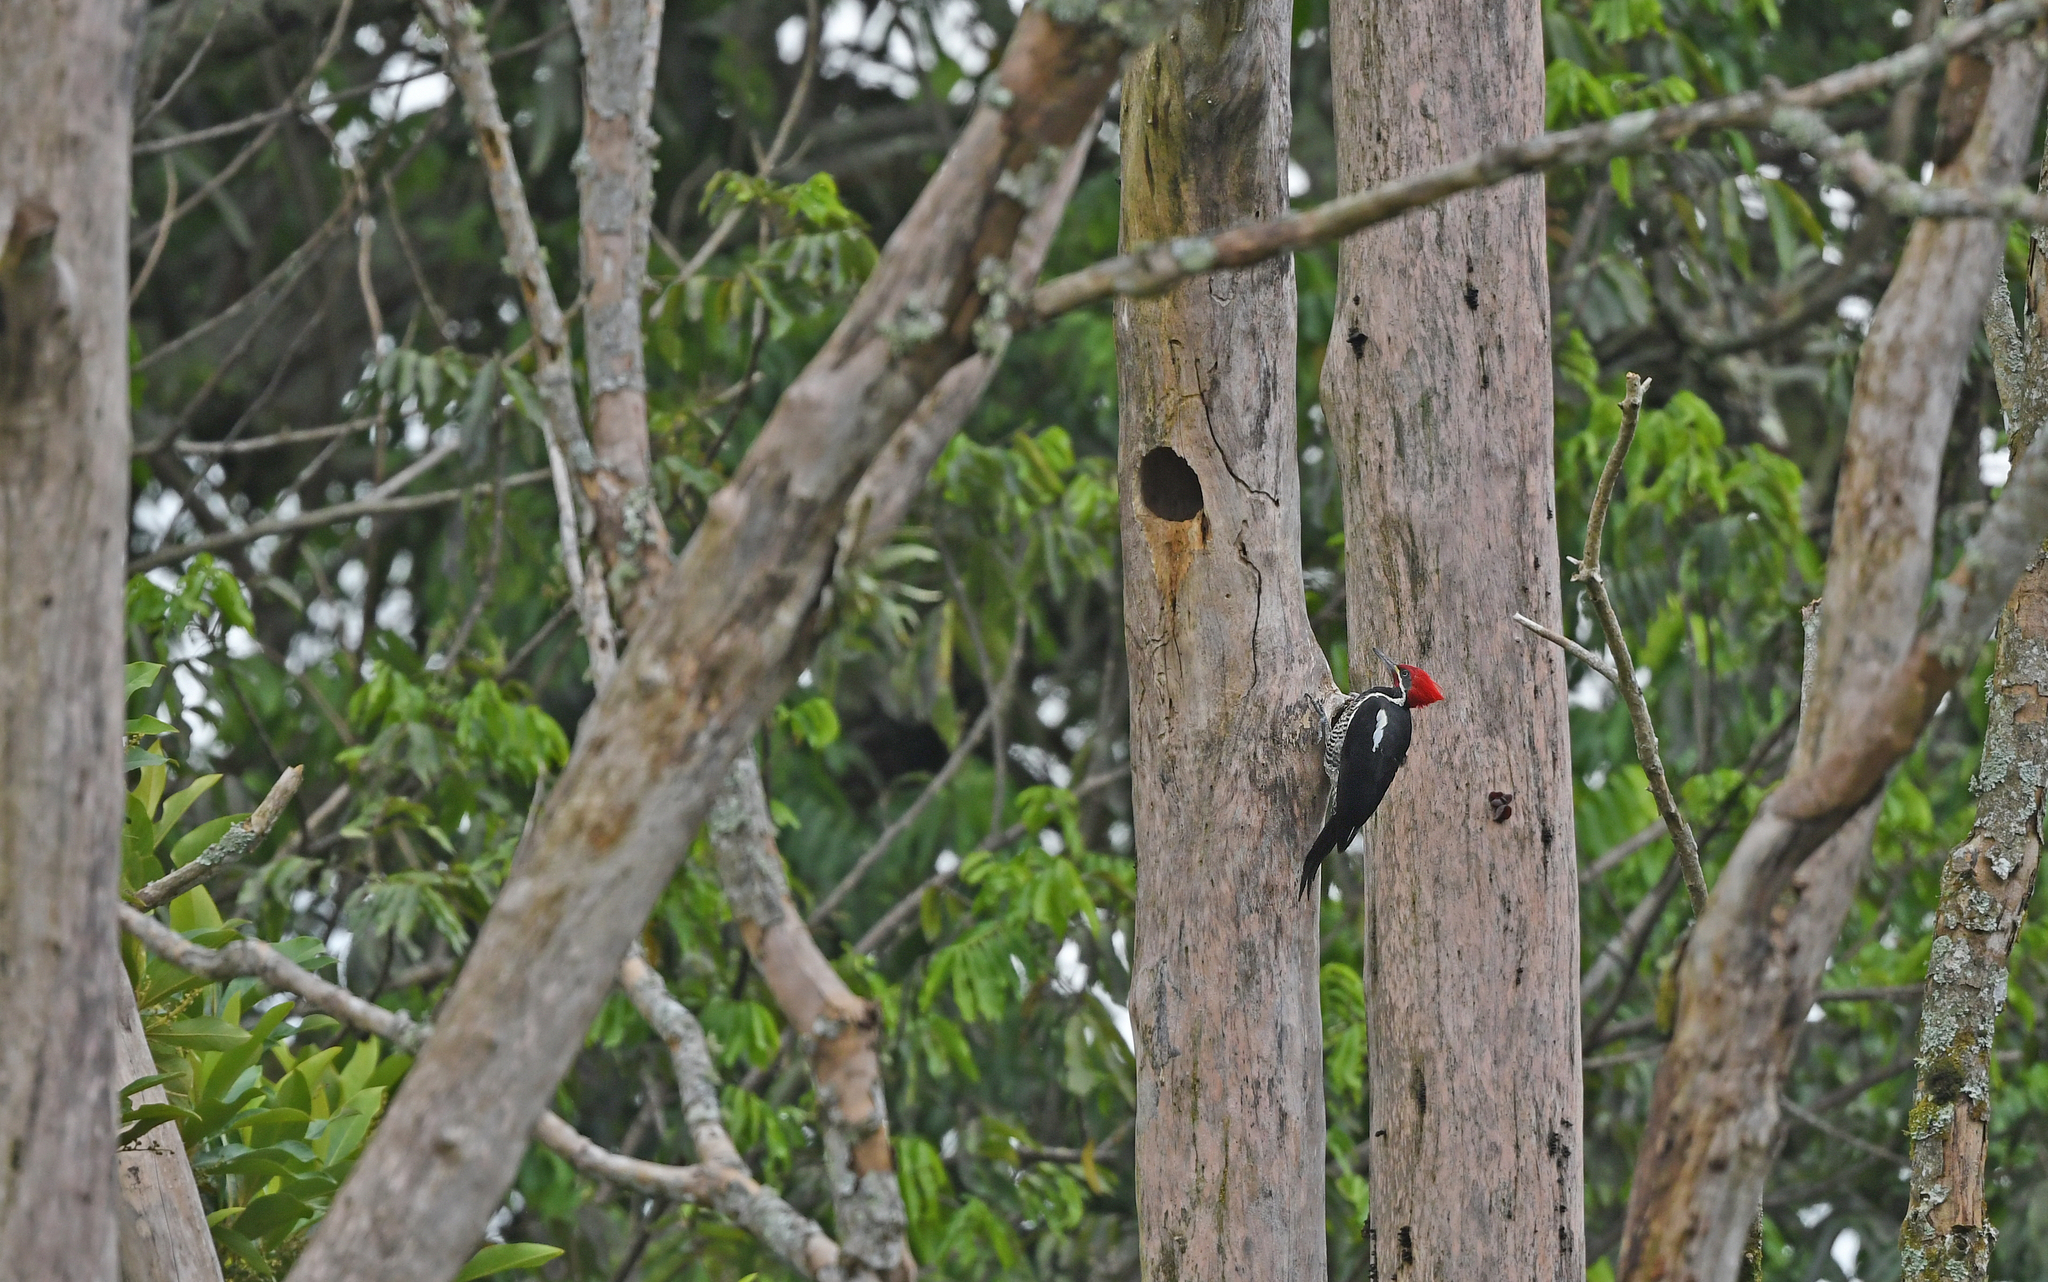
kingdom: Animalia
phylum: Chordata
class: Aves
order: Piciformes
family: Picidae
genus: Dryocopus
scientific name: Dryocopus lineatus
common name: Lineated woodpecker
